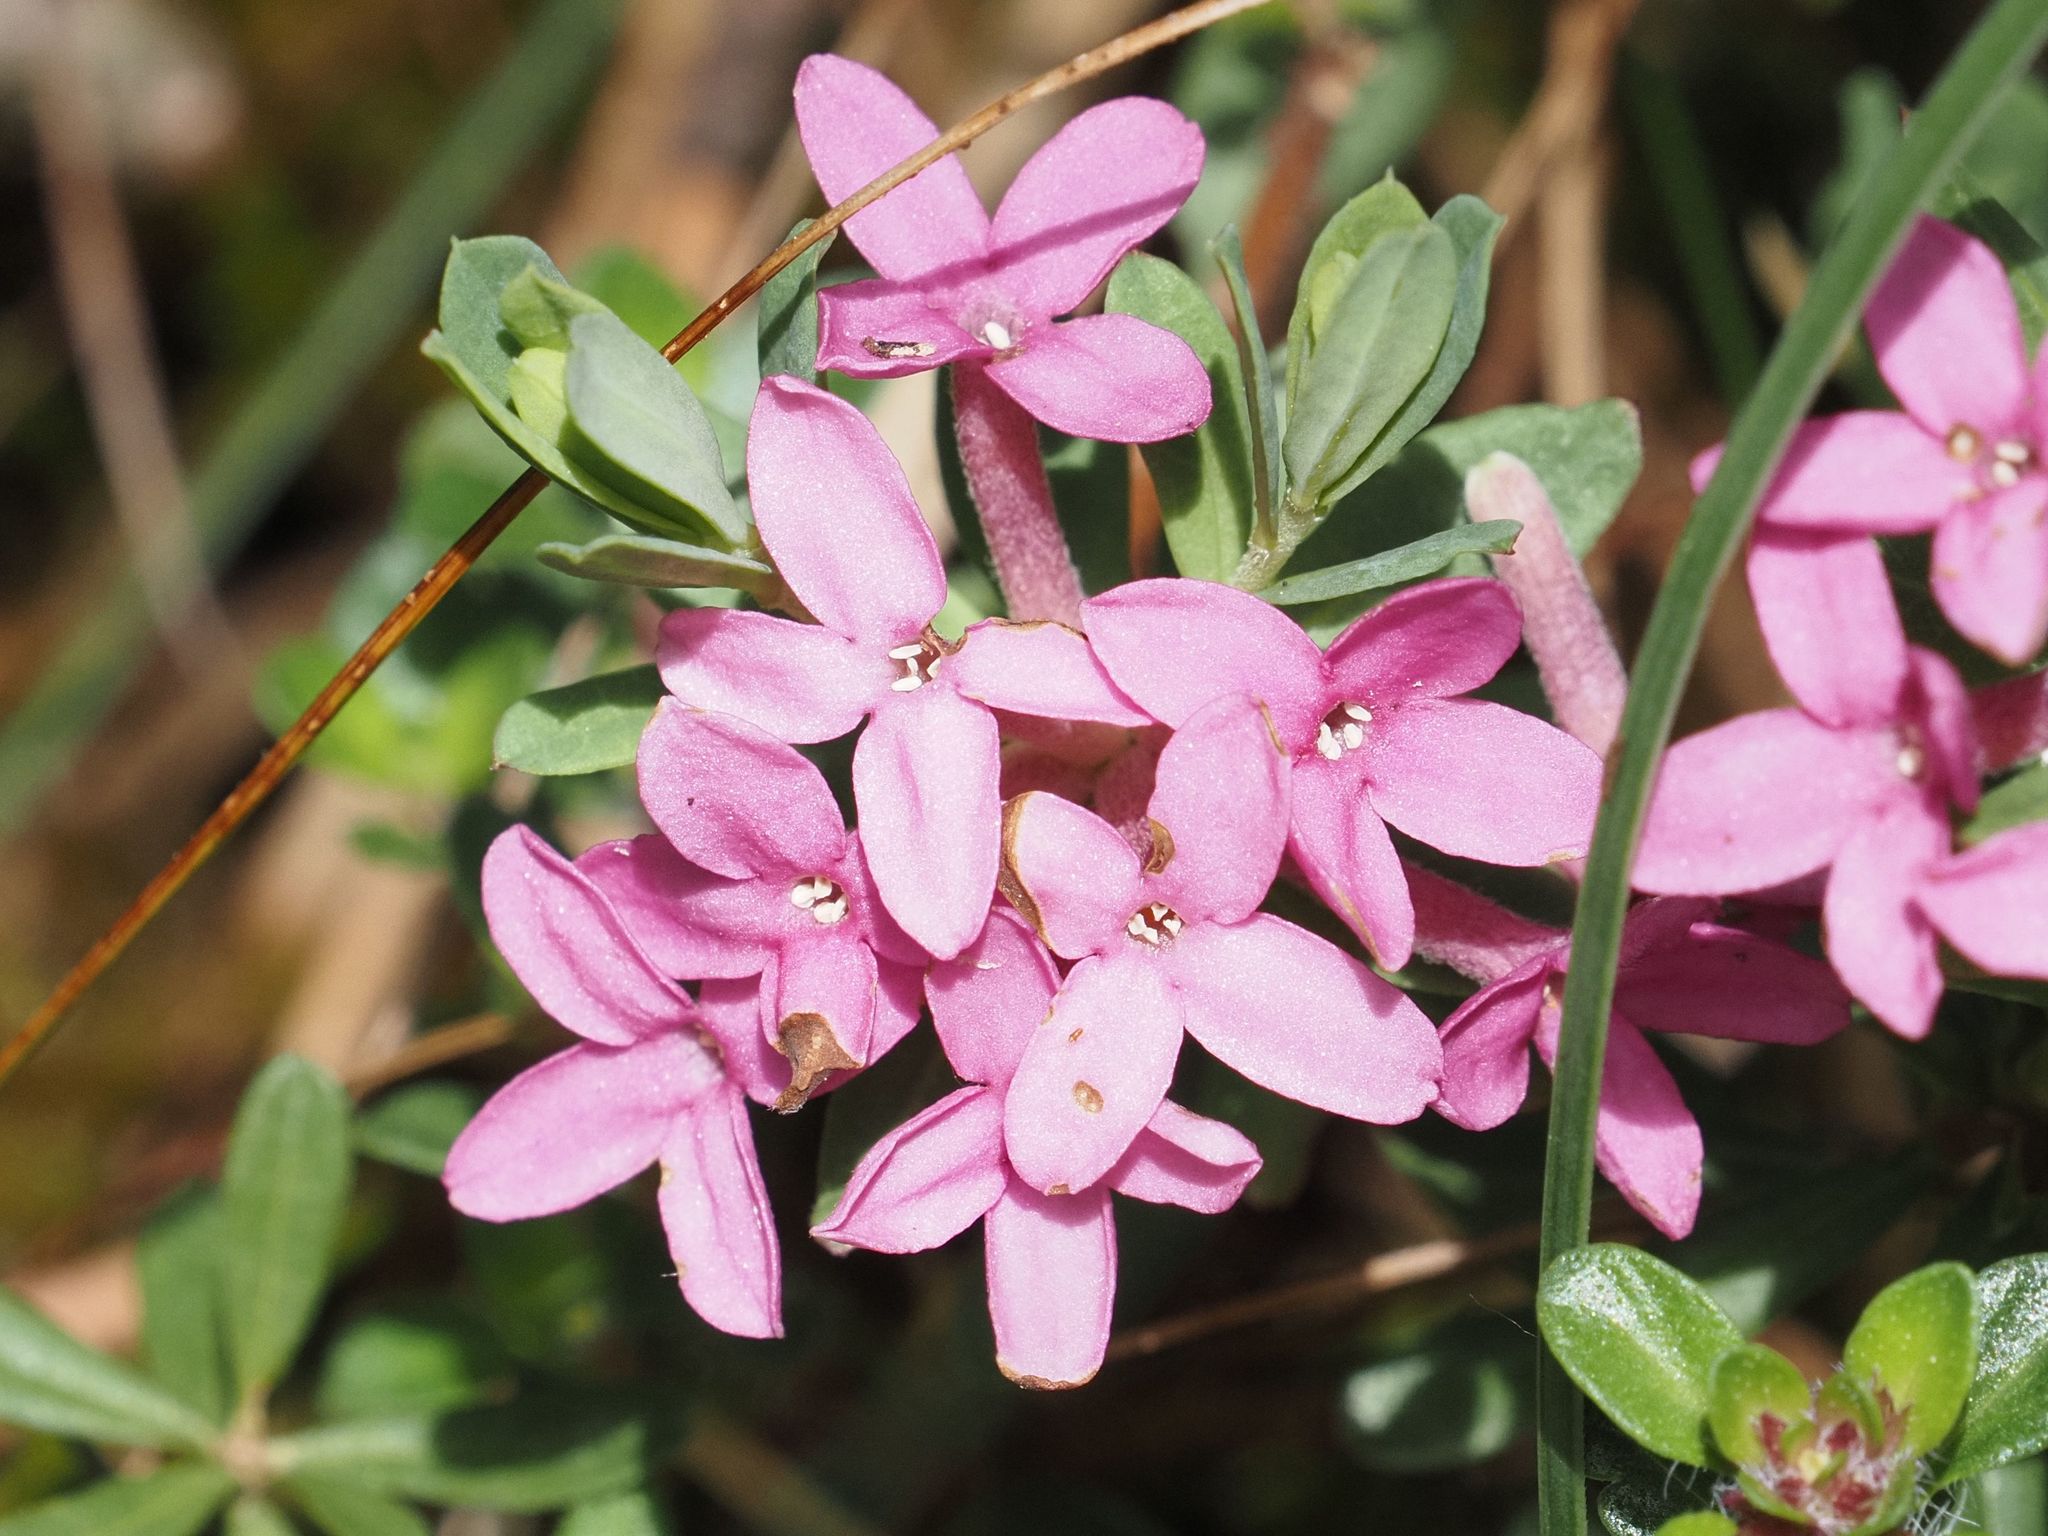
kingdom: Plantae
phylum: Tracheophyta
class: Magnoliopsida
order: Malvales
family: Thymelaeaceae
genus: Daphne
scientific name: Daphne cneorum
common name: Garland-flower
